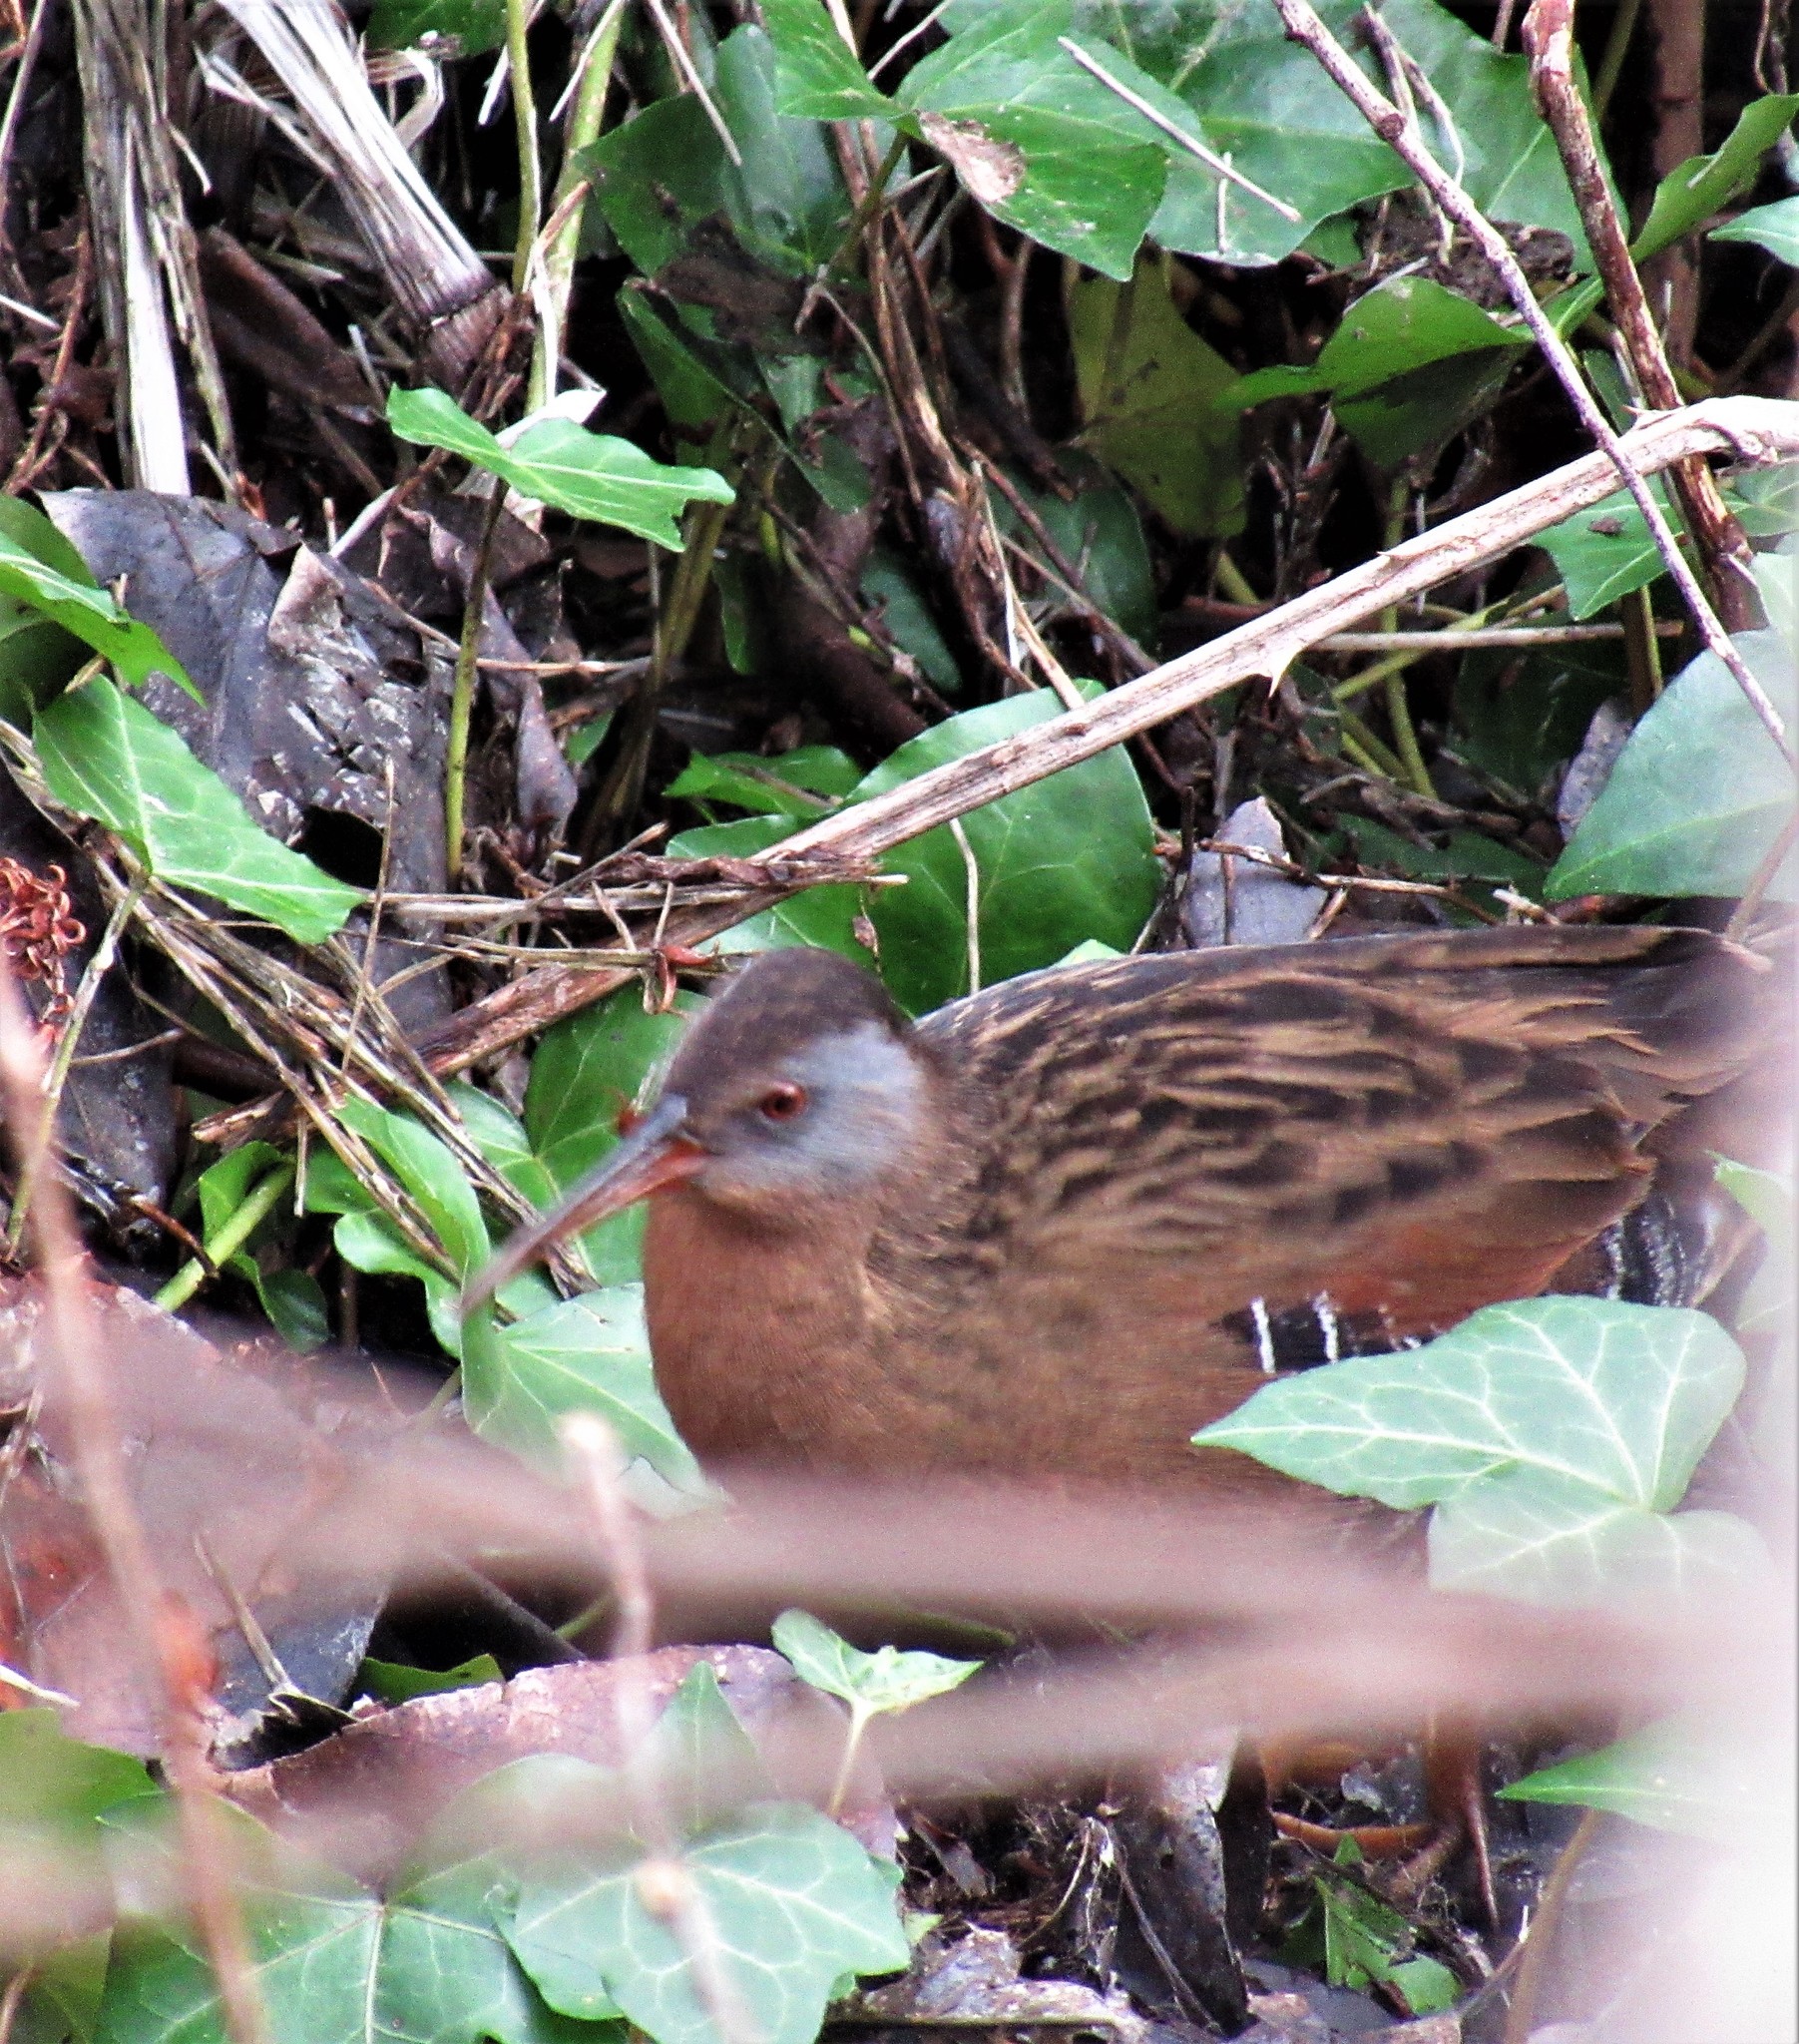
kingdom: Animalia
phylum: Chordata
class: Aves
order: Gruiformes
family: Rallidae
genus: Rallus
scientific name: Rallus limicola
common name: Virginia rail
